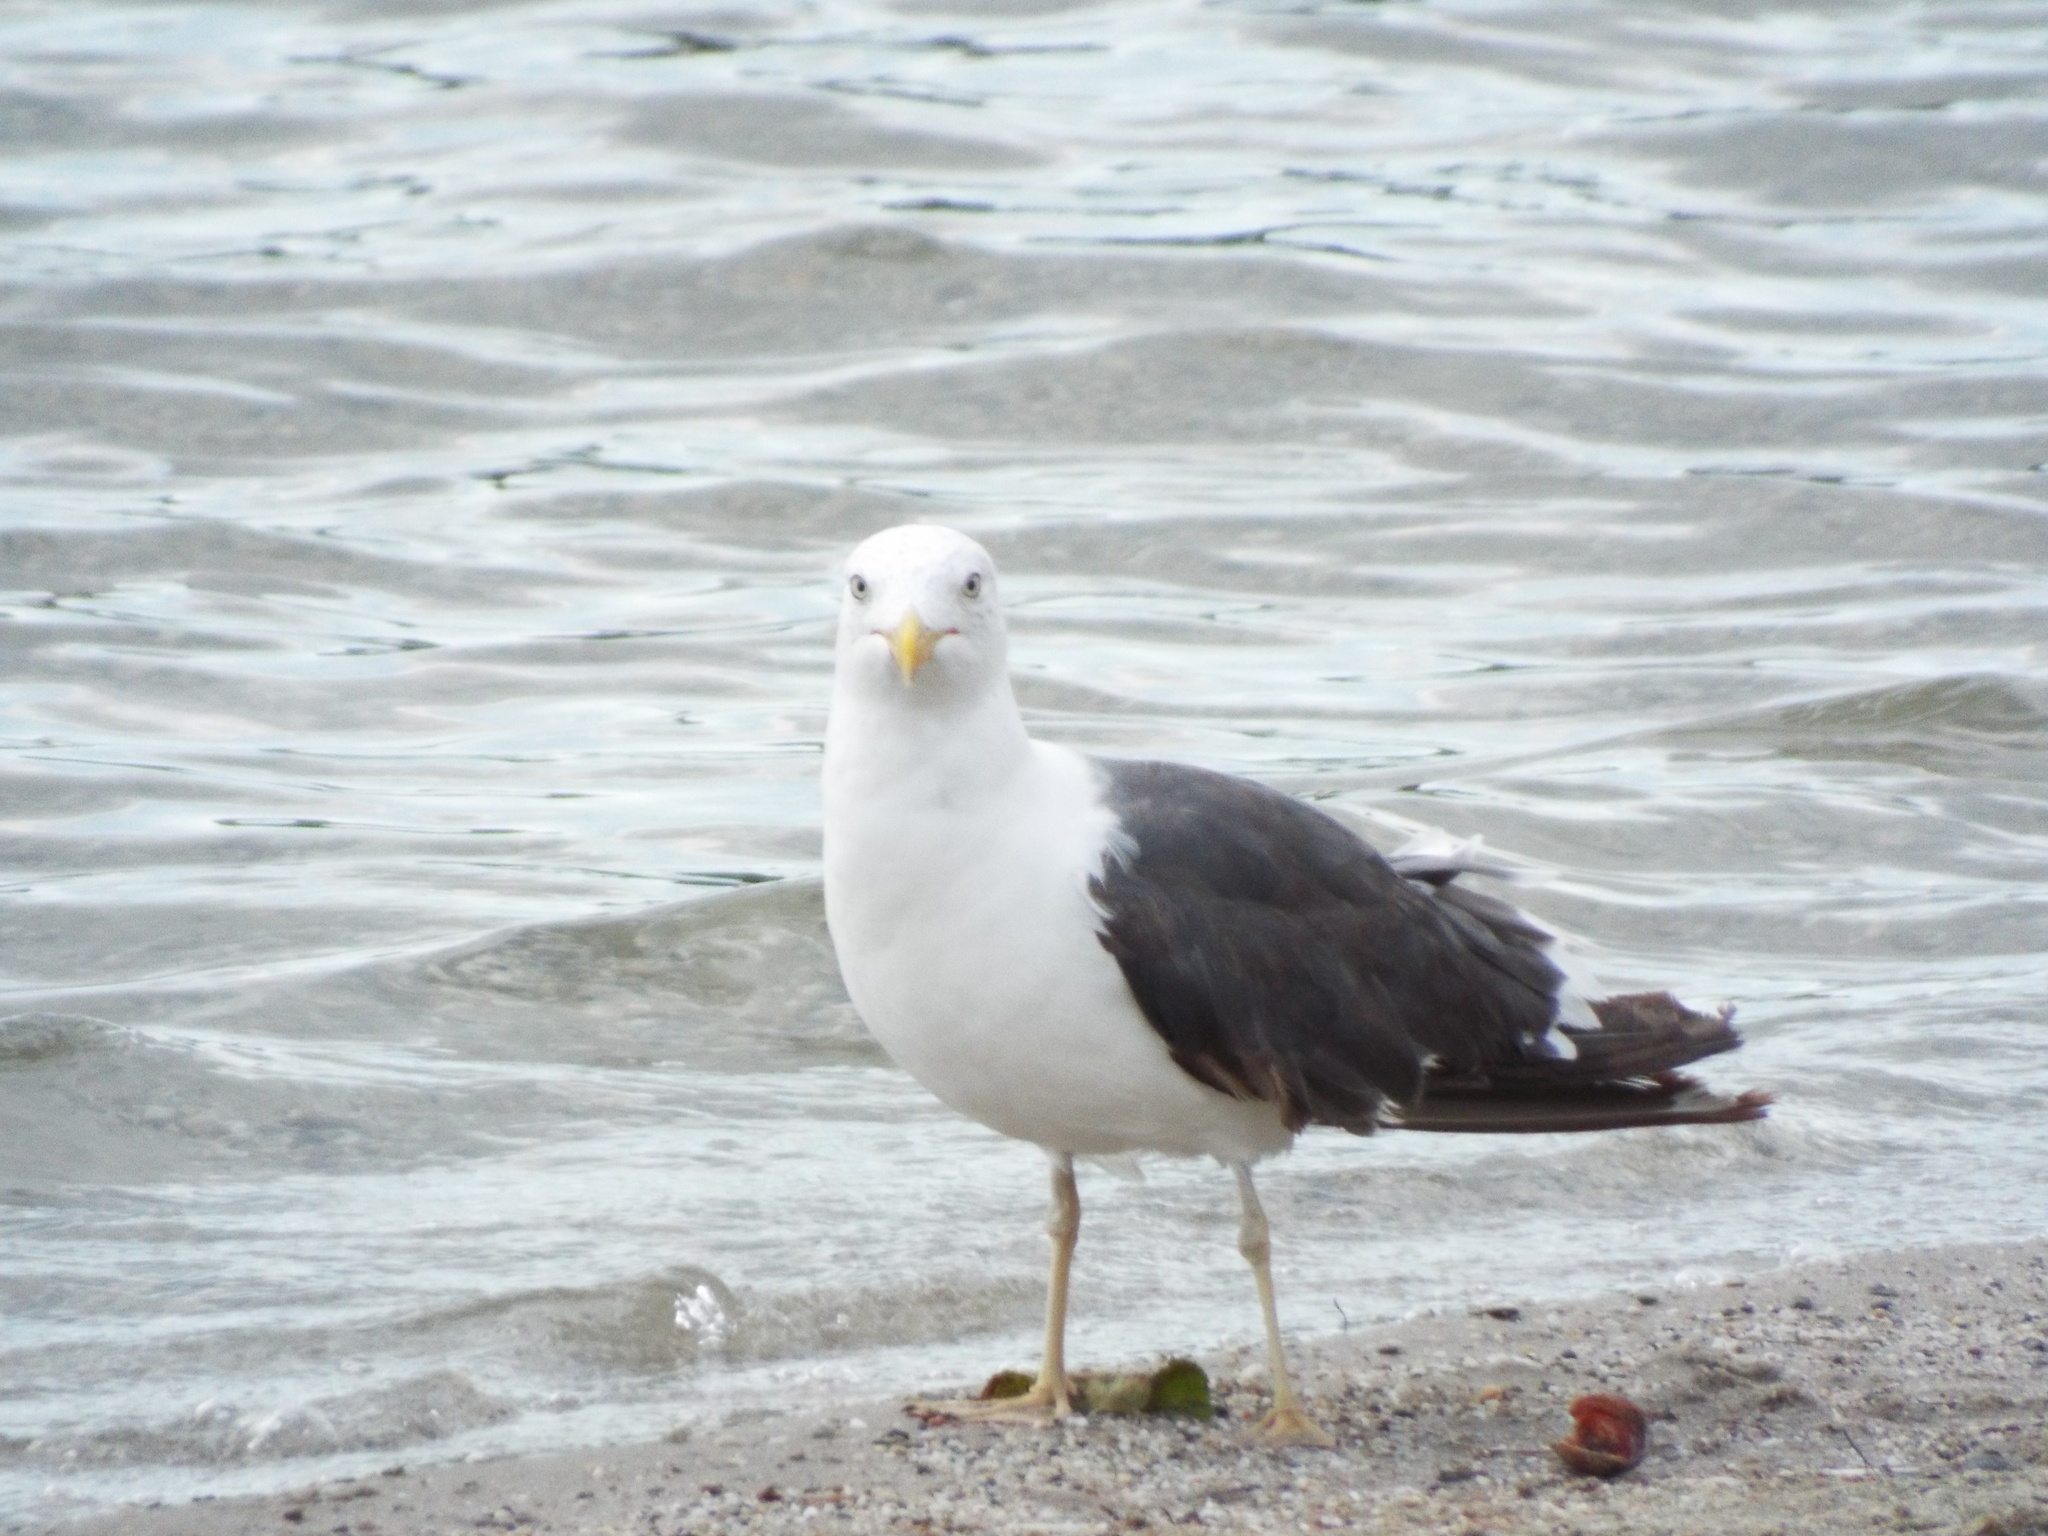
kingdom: Animalia
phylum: Chordata
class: Aves
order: Charadriiformes
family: Laridae
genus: Larus
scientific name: Larus fuscus
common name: Lesser black-backed gull
